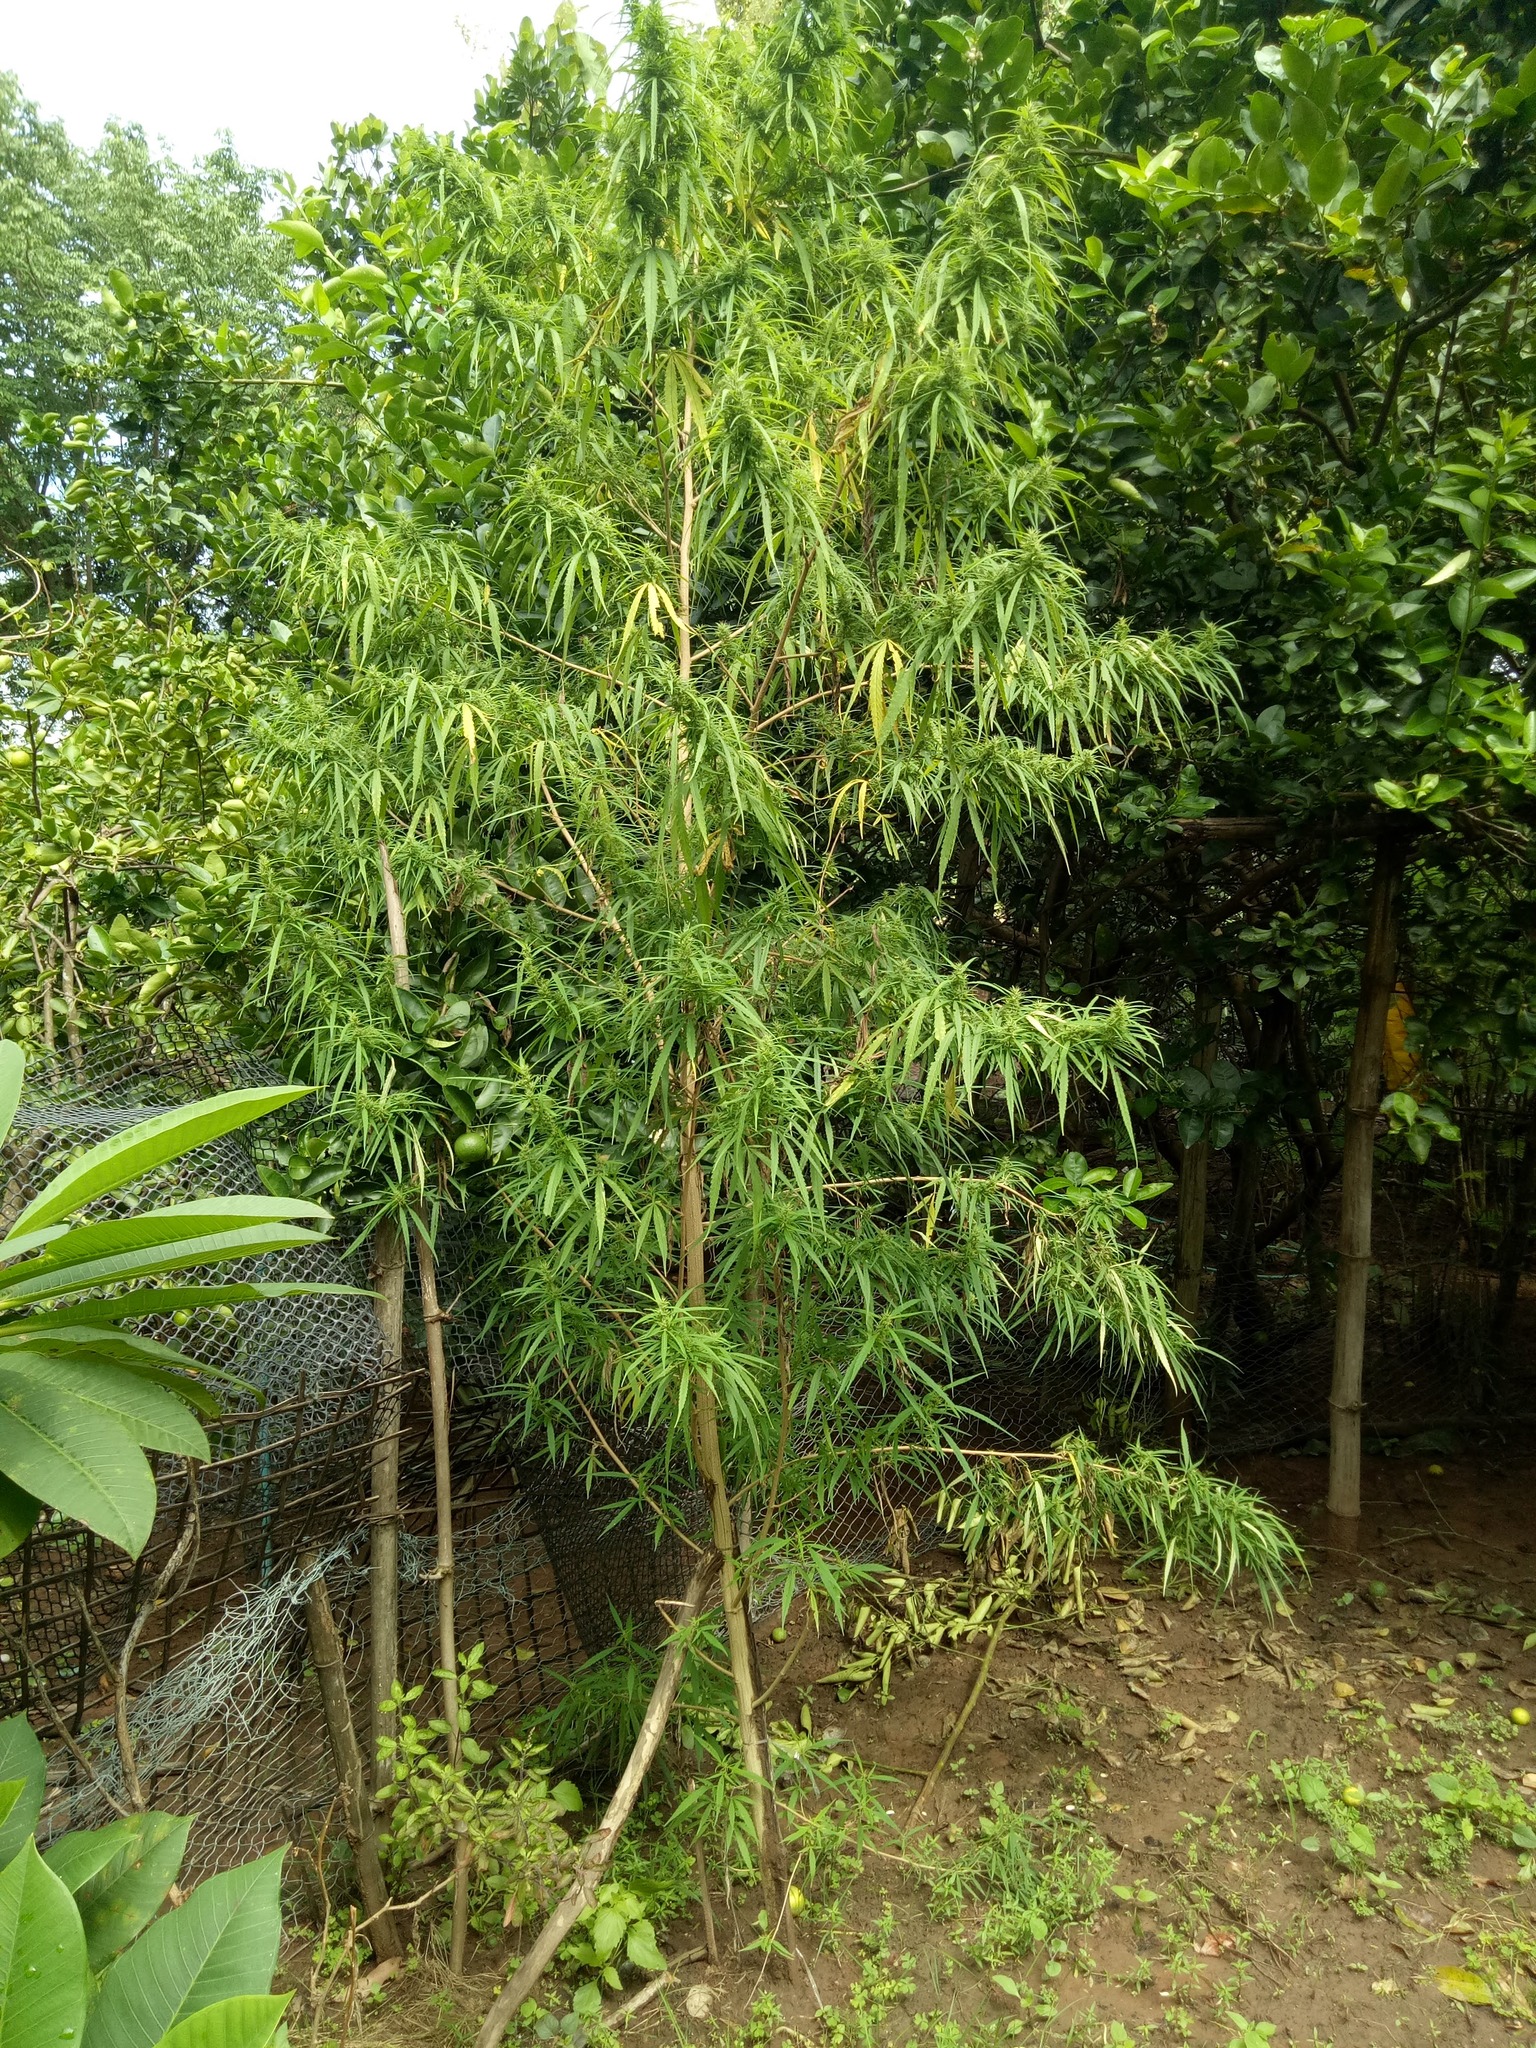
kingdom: Plantae
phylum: Tracheophyta
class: Magnoliopsida
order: Rosales
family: Cannabaceae
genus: Cannabis
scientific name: Cannabis sativa
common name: Hemp
